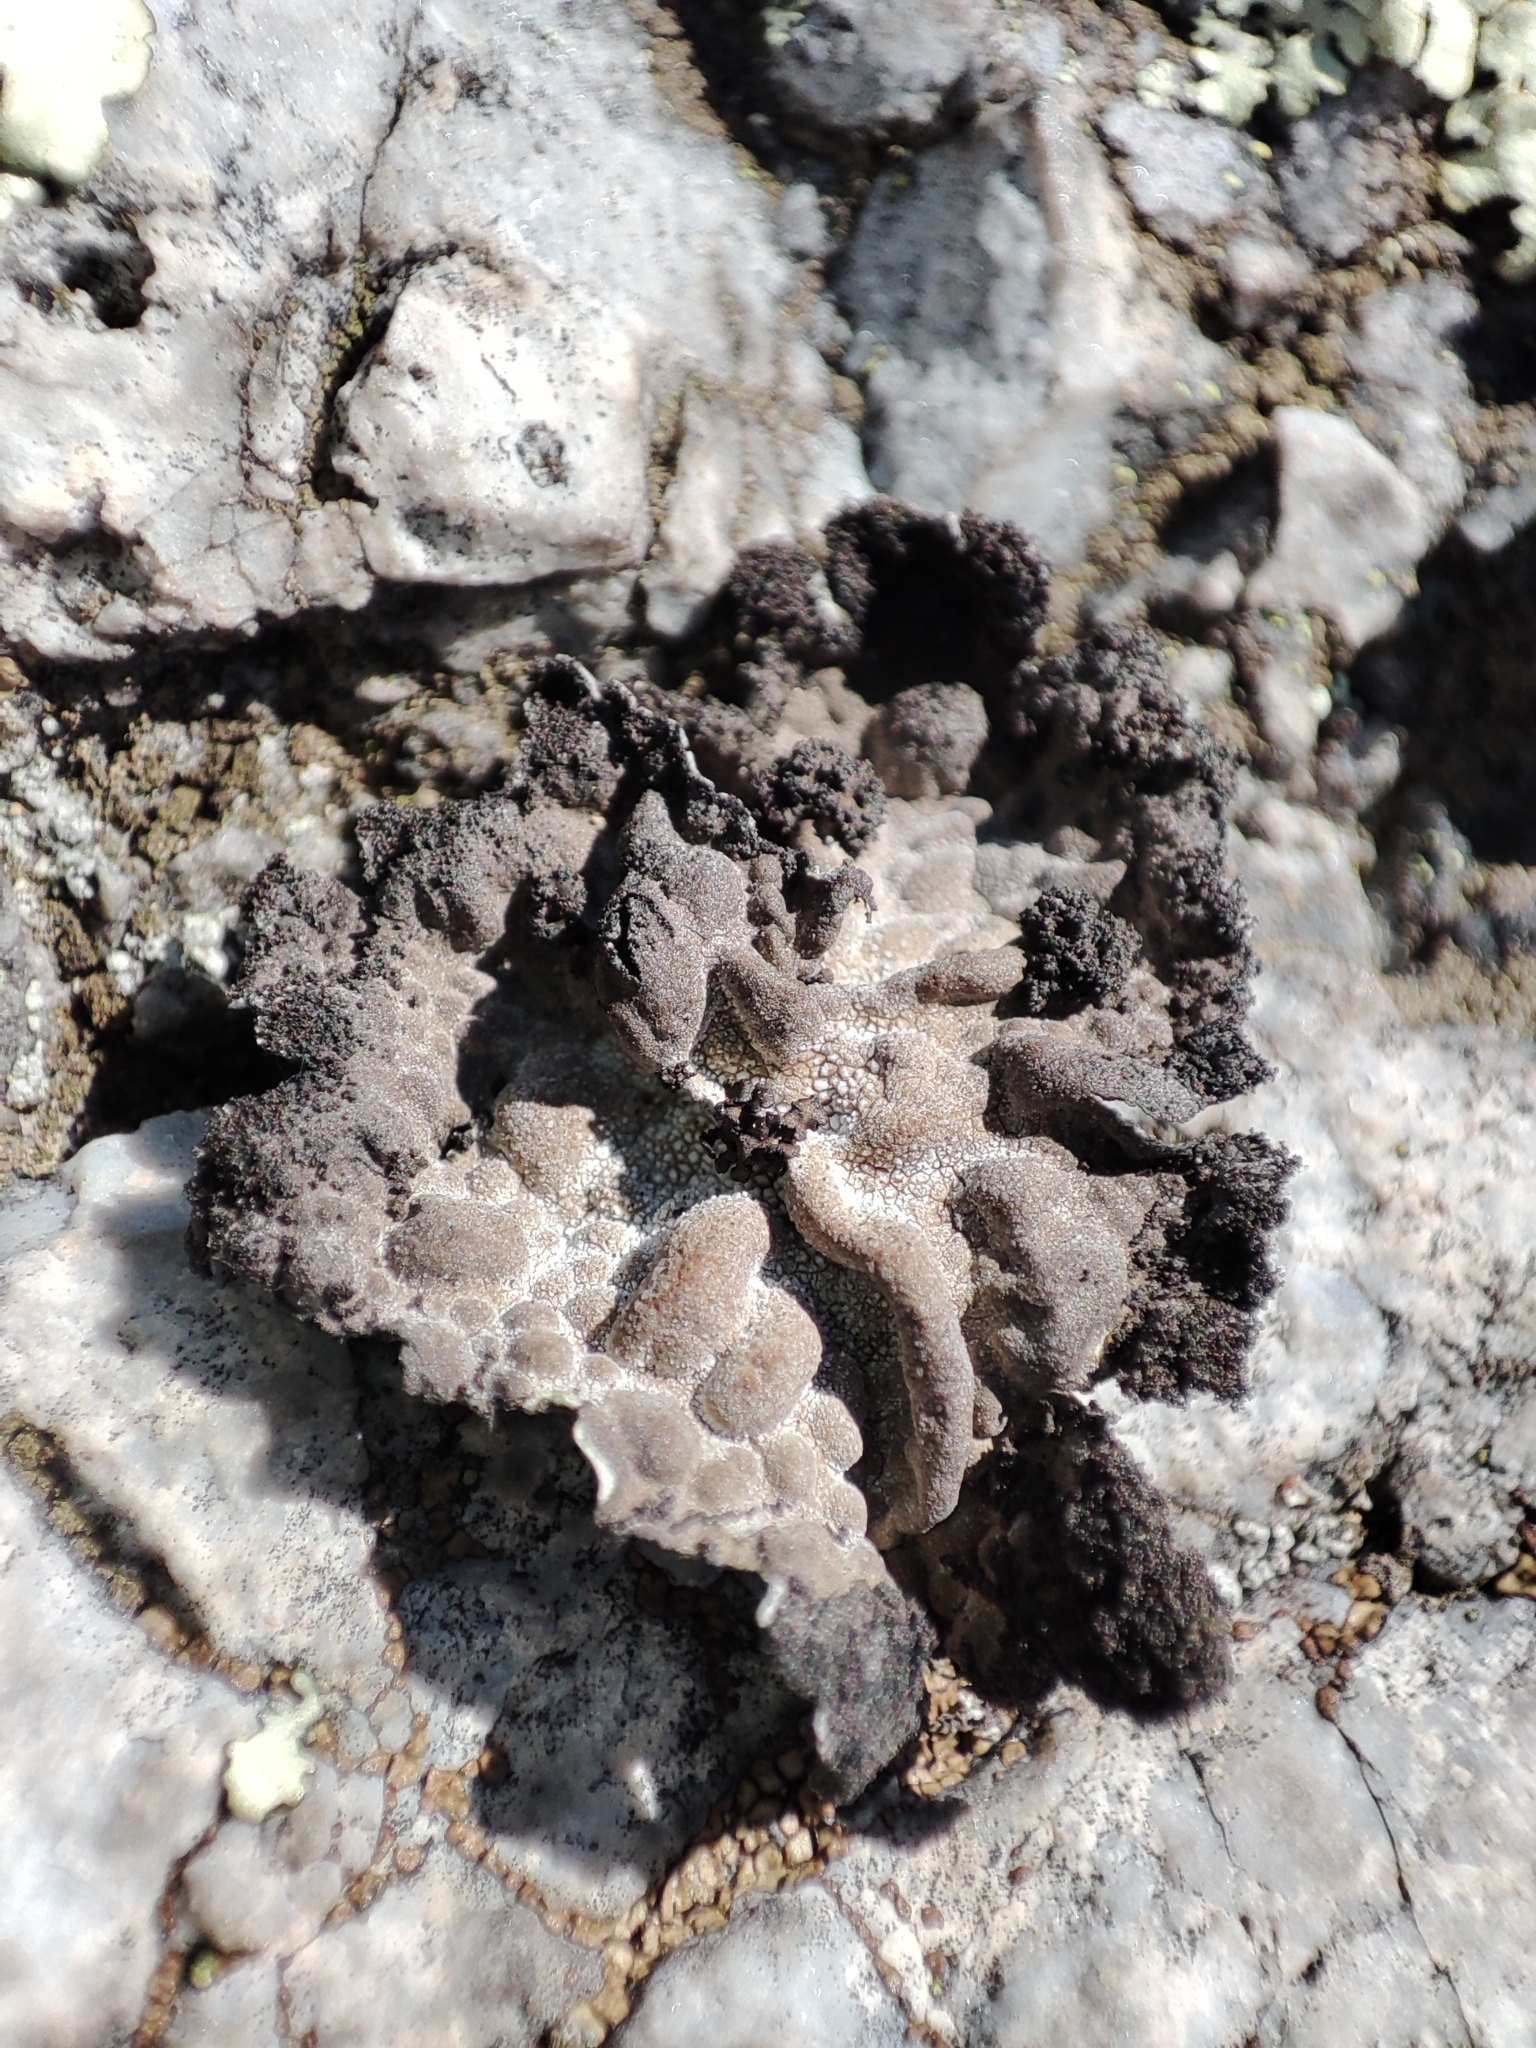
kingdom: Fungi
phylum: Ascomycota
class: Lecanoromycetes
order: Umbilicariales
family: Umbilicariaceae
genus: Lasallia
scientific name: Lasallia pustulata
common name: Blistered toadskin lichen
